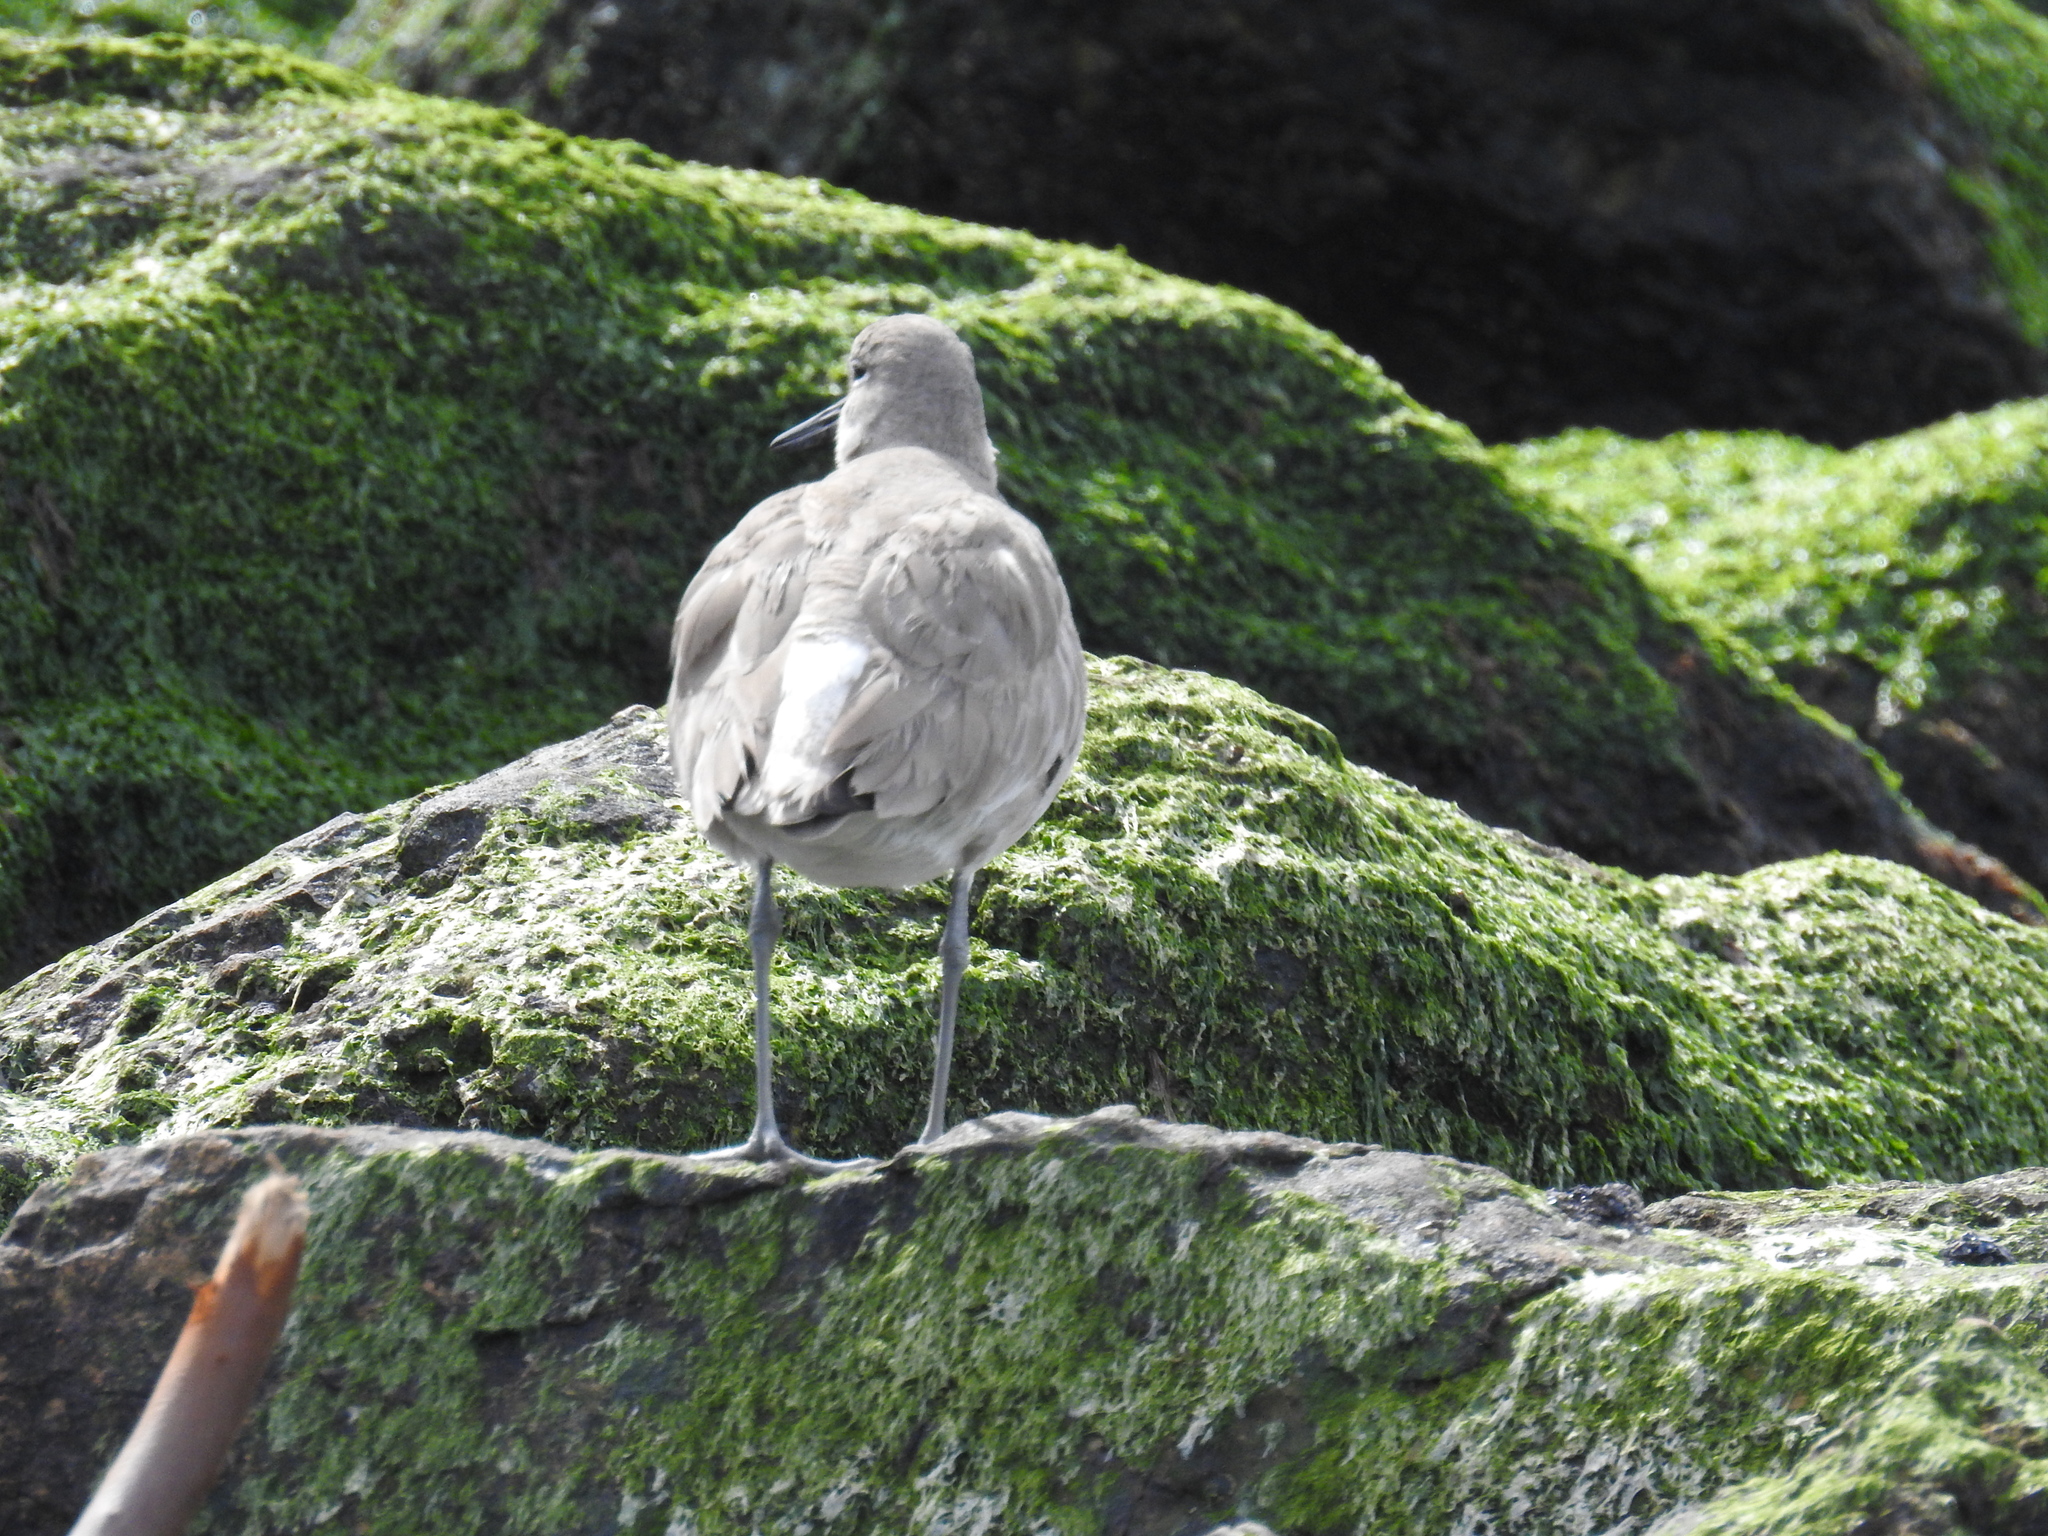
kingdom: Animalia
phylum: Chordata
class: Aves
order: Charadriiformes
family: Scolopacidae
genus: Tringa
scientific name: Tringa semipalmata
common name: Willet
